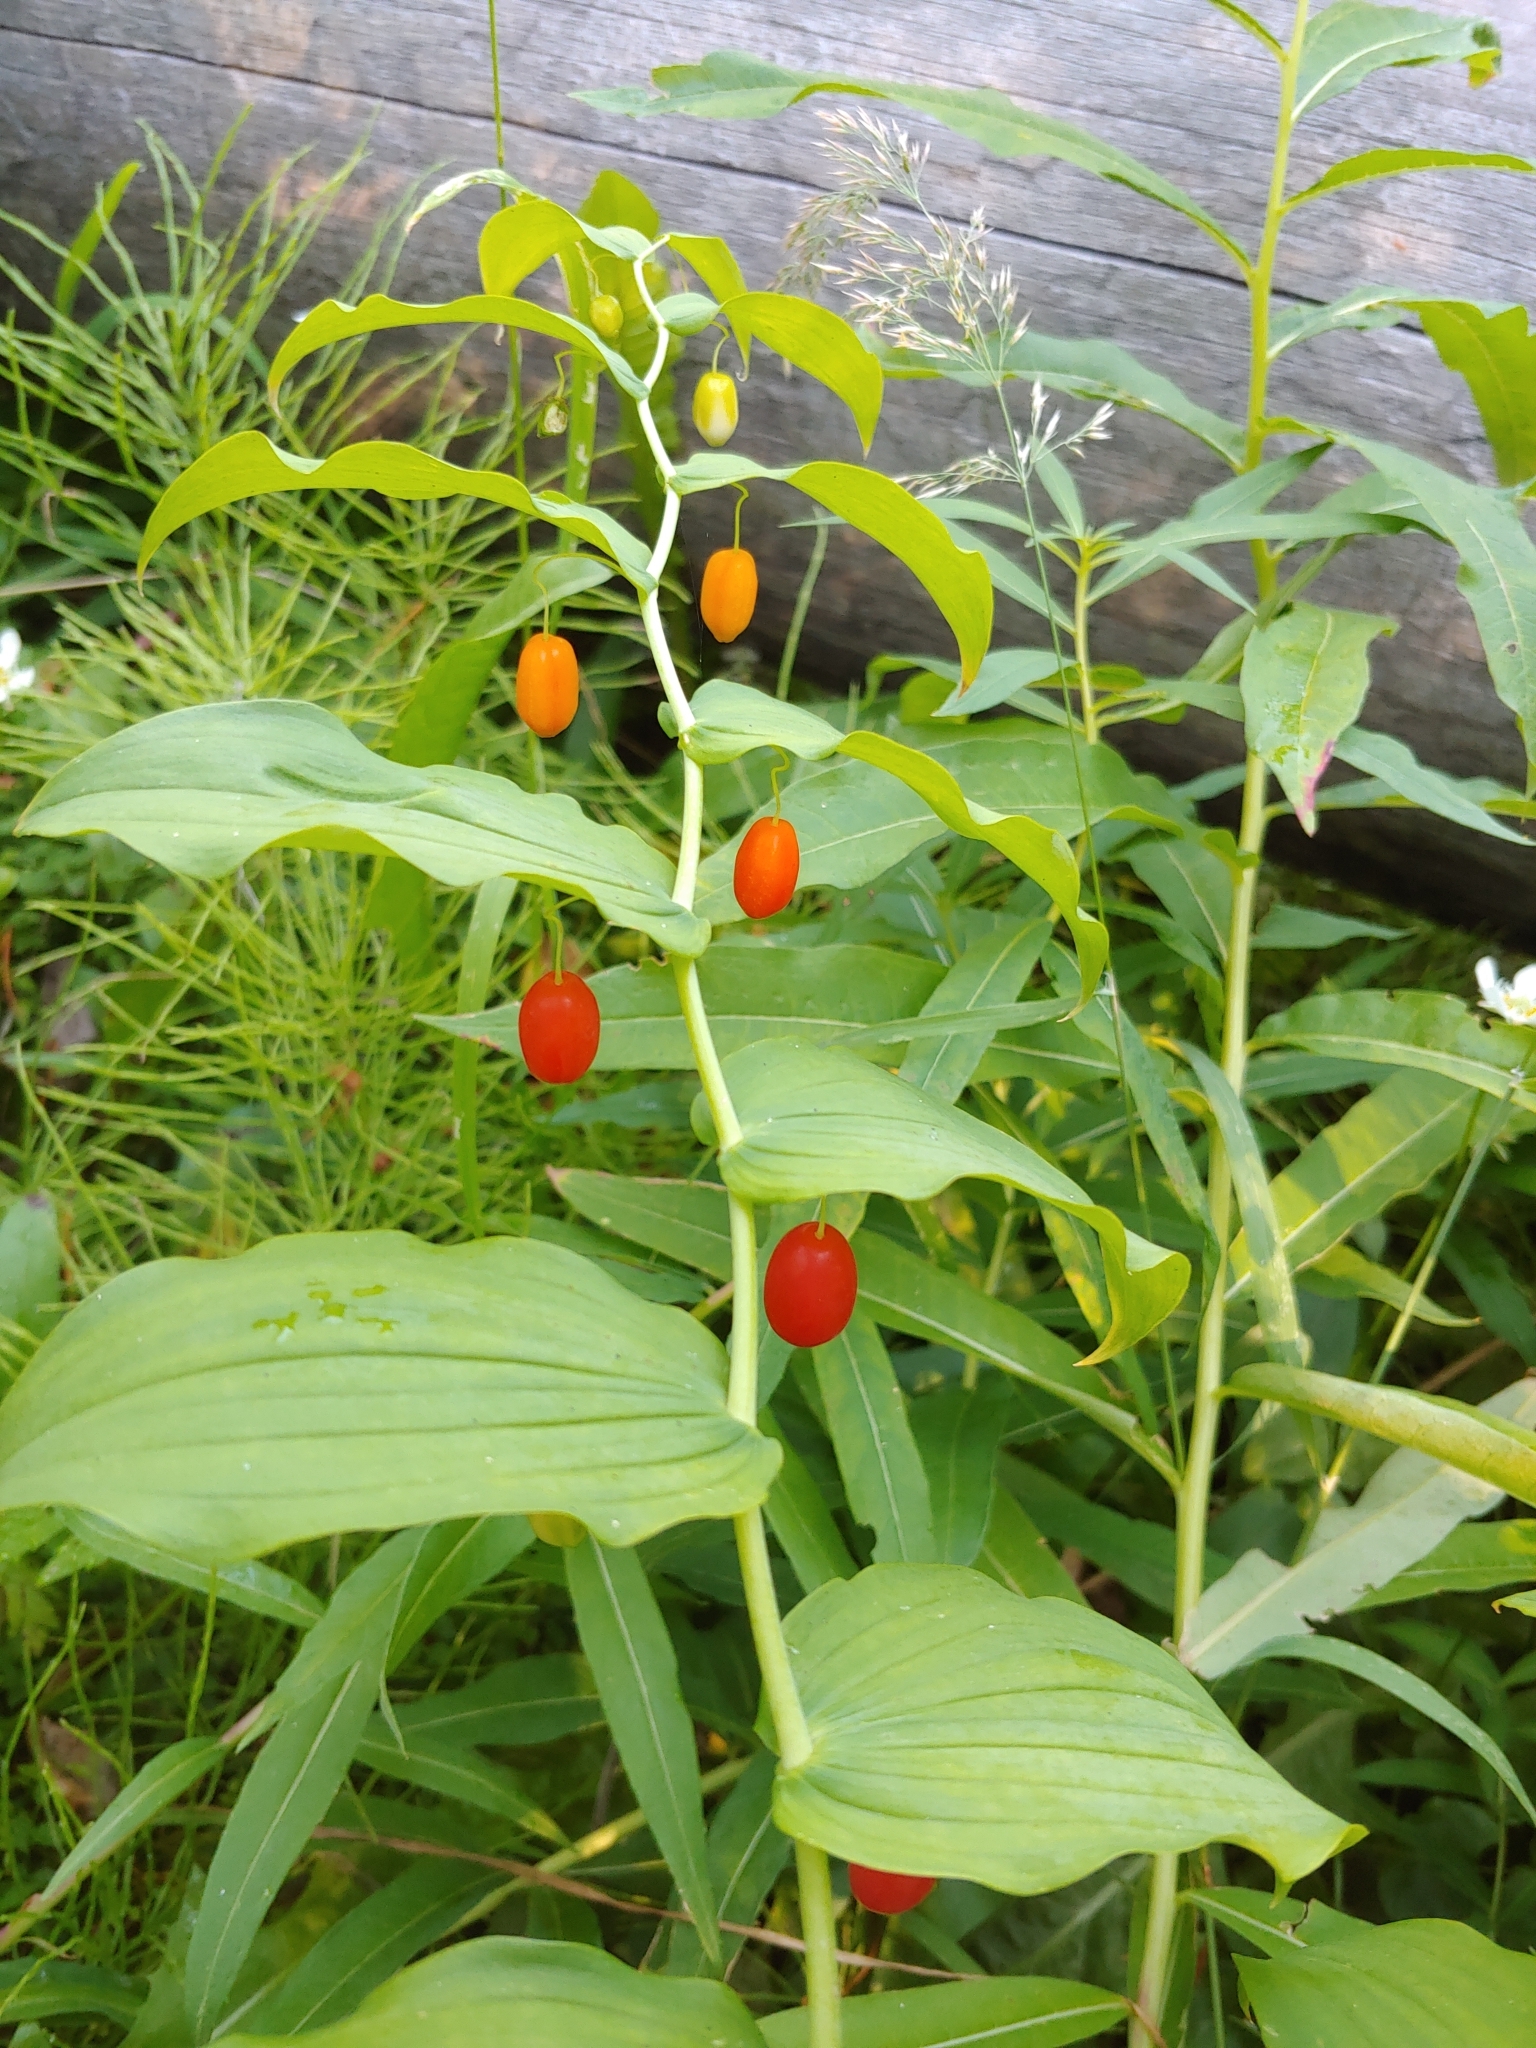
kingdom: Plantae
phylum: Tracheophyta
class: Liliopsida
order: Liliales
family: Liliaceae
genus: Streptopus
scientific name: Streptopus amplexifolius
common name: Clasp twisted stalk
